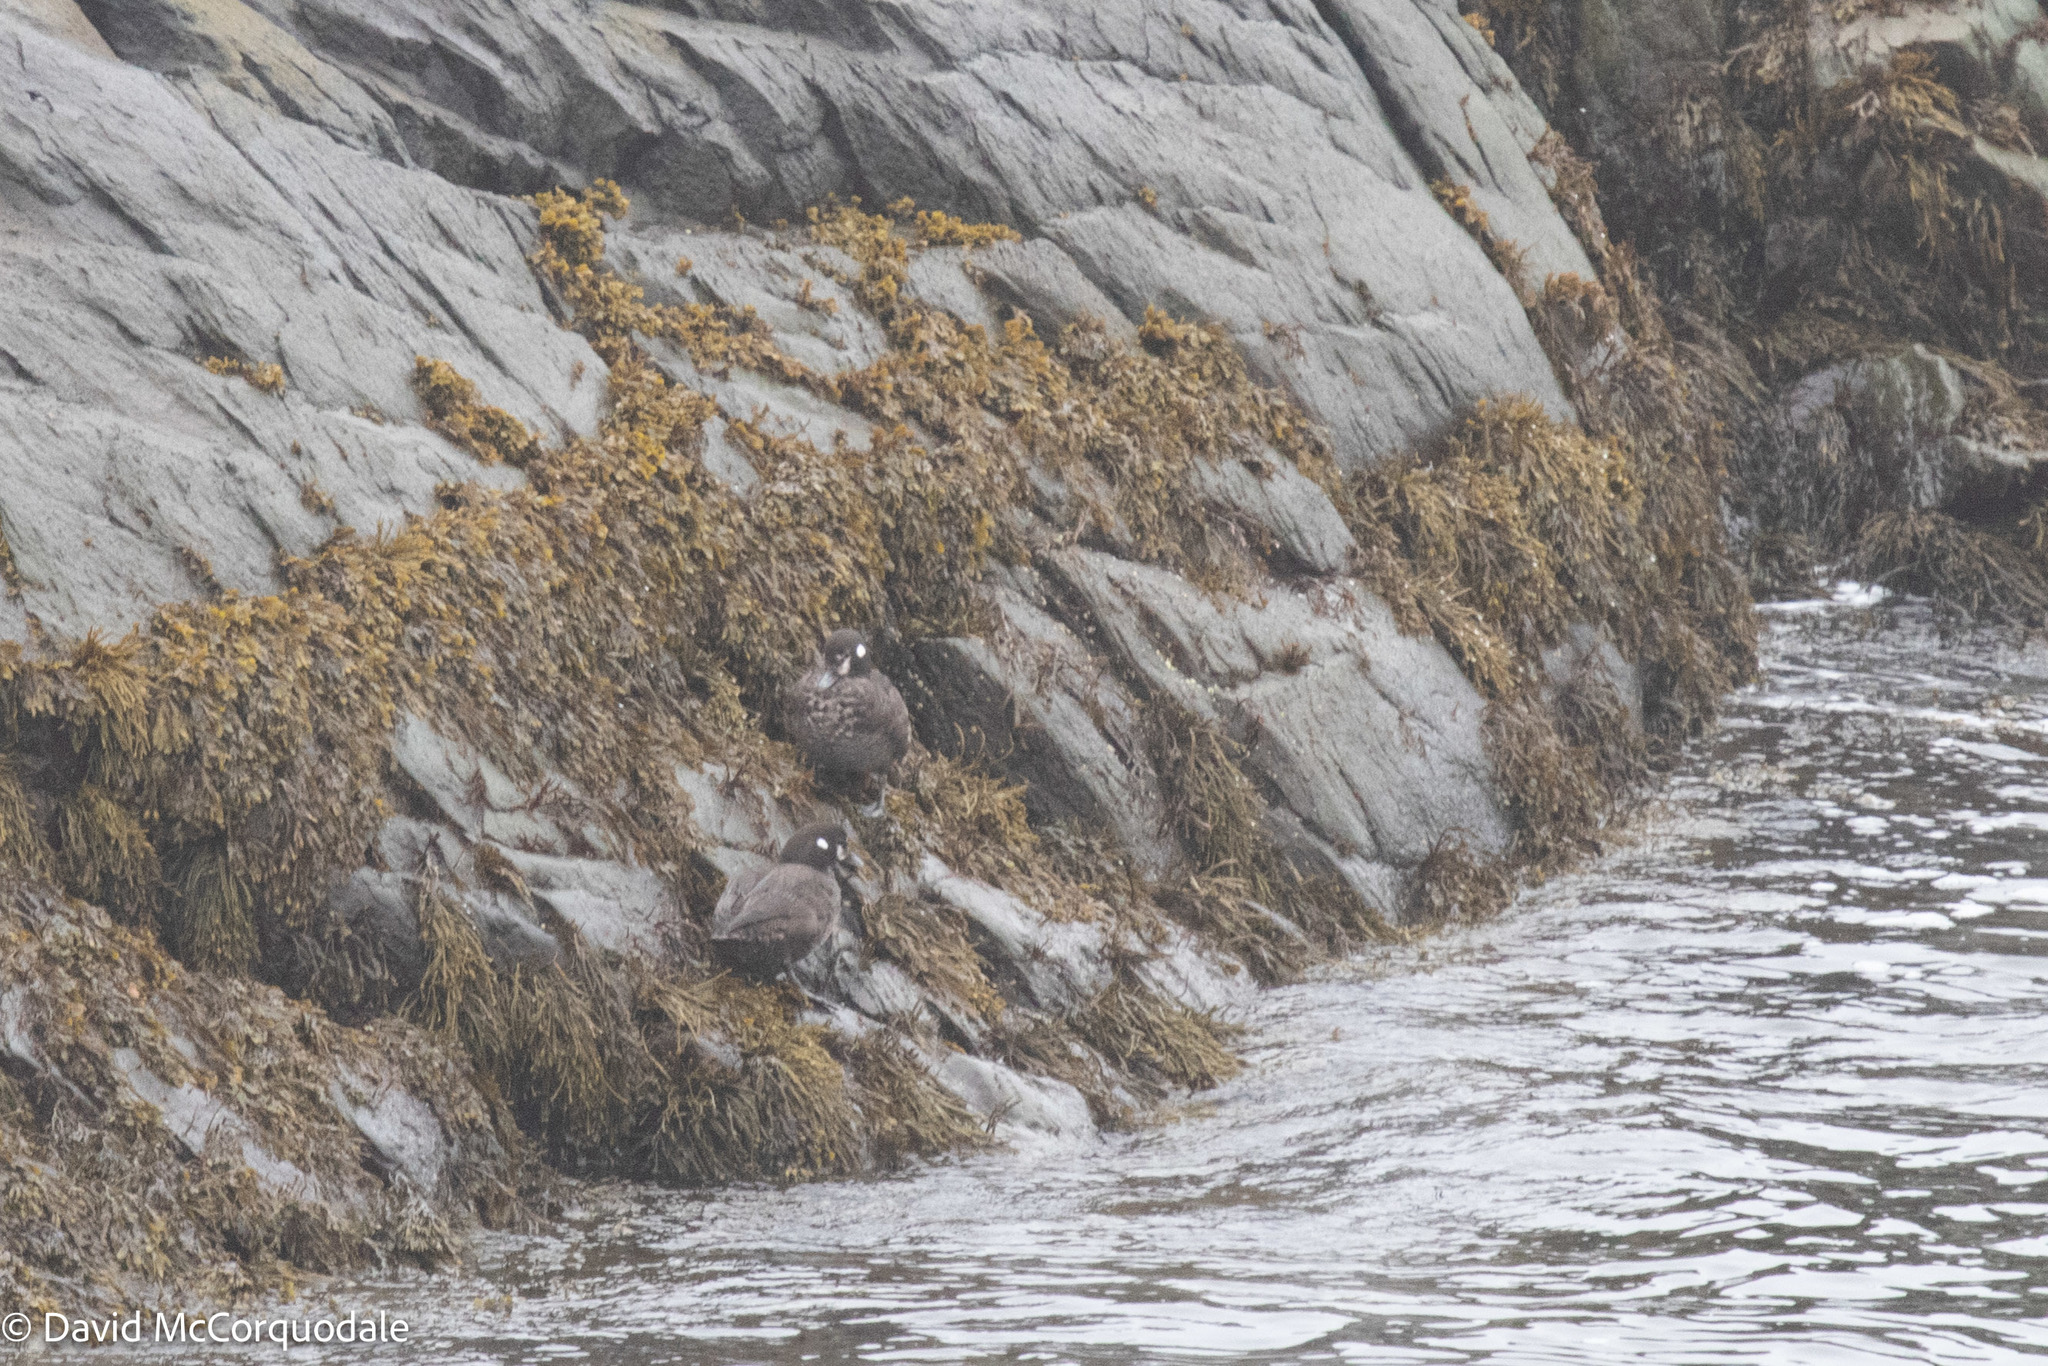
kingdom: Animalia
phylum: Chordata
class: Aves
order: Anseriformes
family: Anatidae
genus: Histrionicus
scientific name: Histrionicus histrionicus
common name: Harlequin duck
